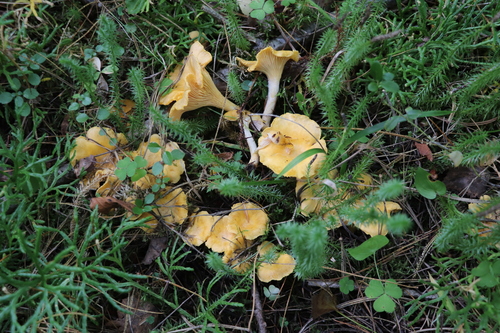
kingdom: Fungi
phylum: Basidiomycota
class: Agaricomycetes
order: Cantharellales
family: Hydnaceae
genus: Cantharellus
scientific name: Cantharellus cibarius
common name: Chanterelle
